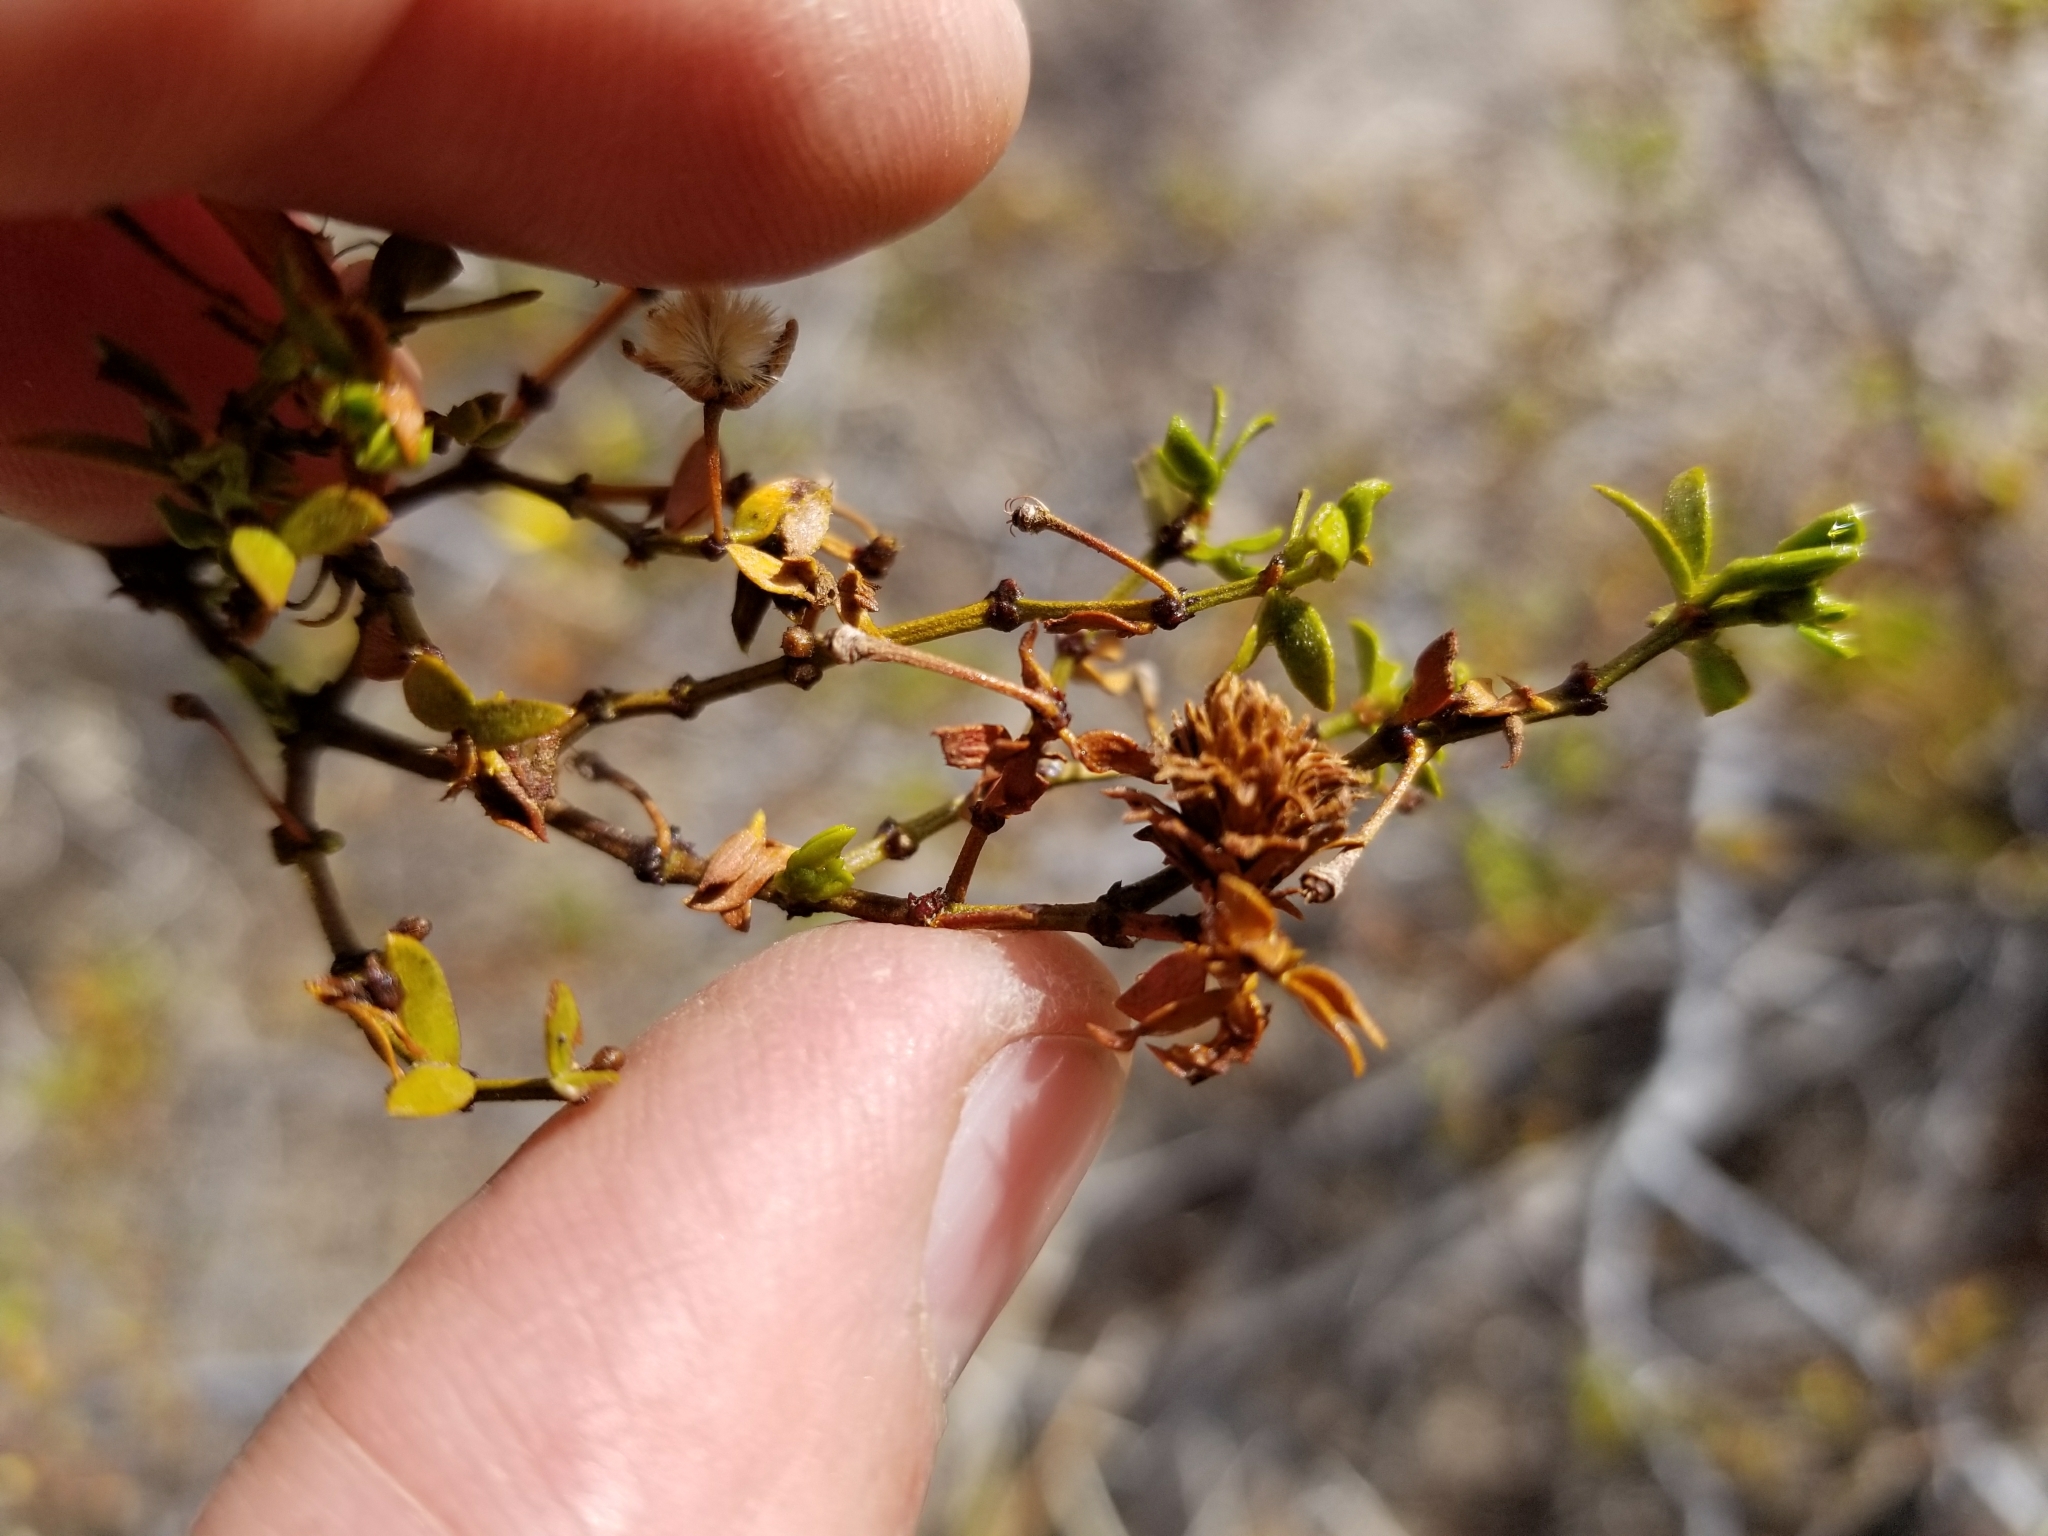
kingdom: Animalia
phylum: Arthropoda
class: Insecta
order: Diptera
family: Cecidomyiidae
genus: Asphondylia
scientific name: Asphondylia rosetta
